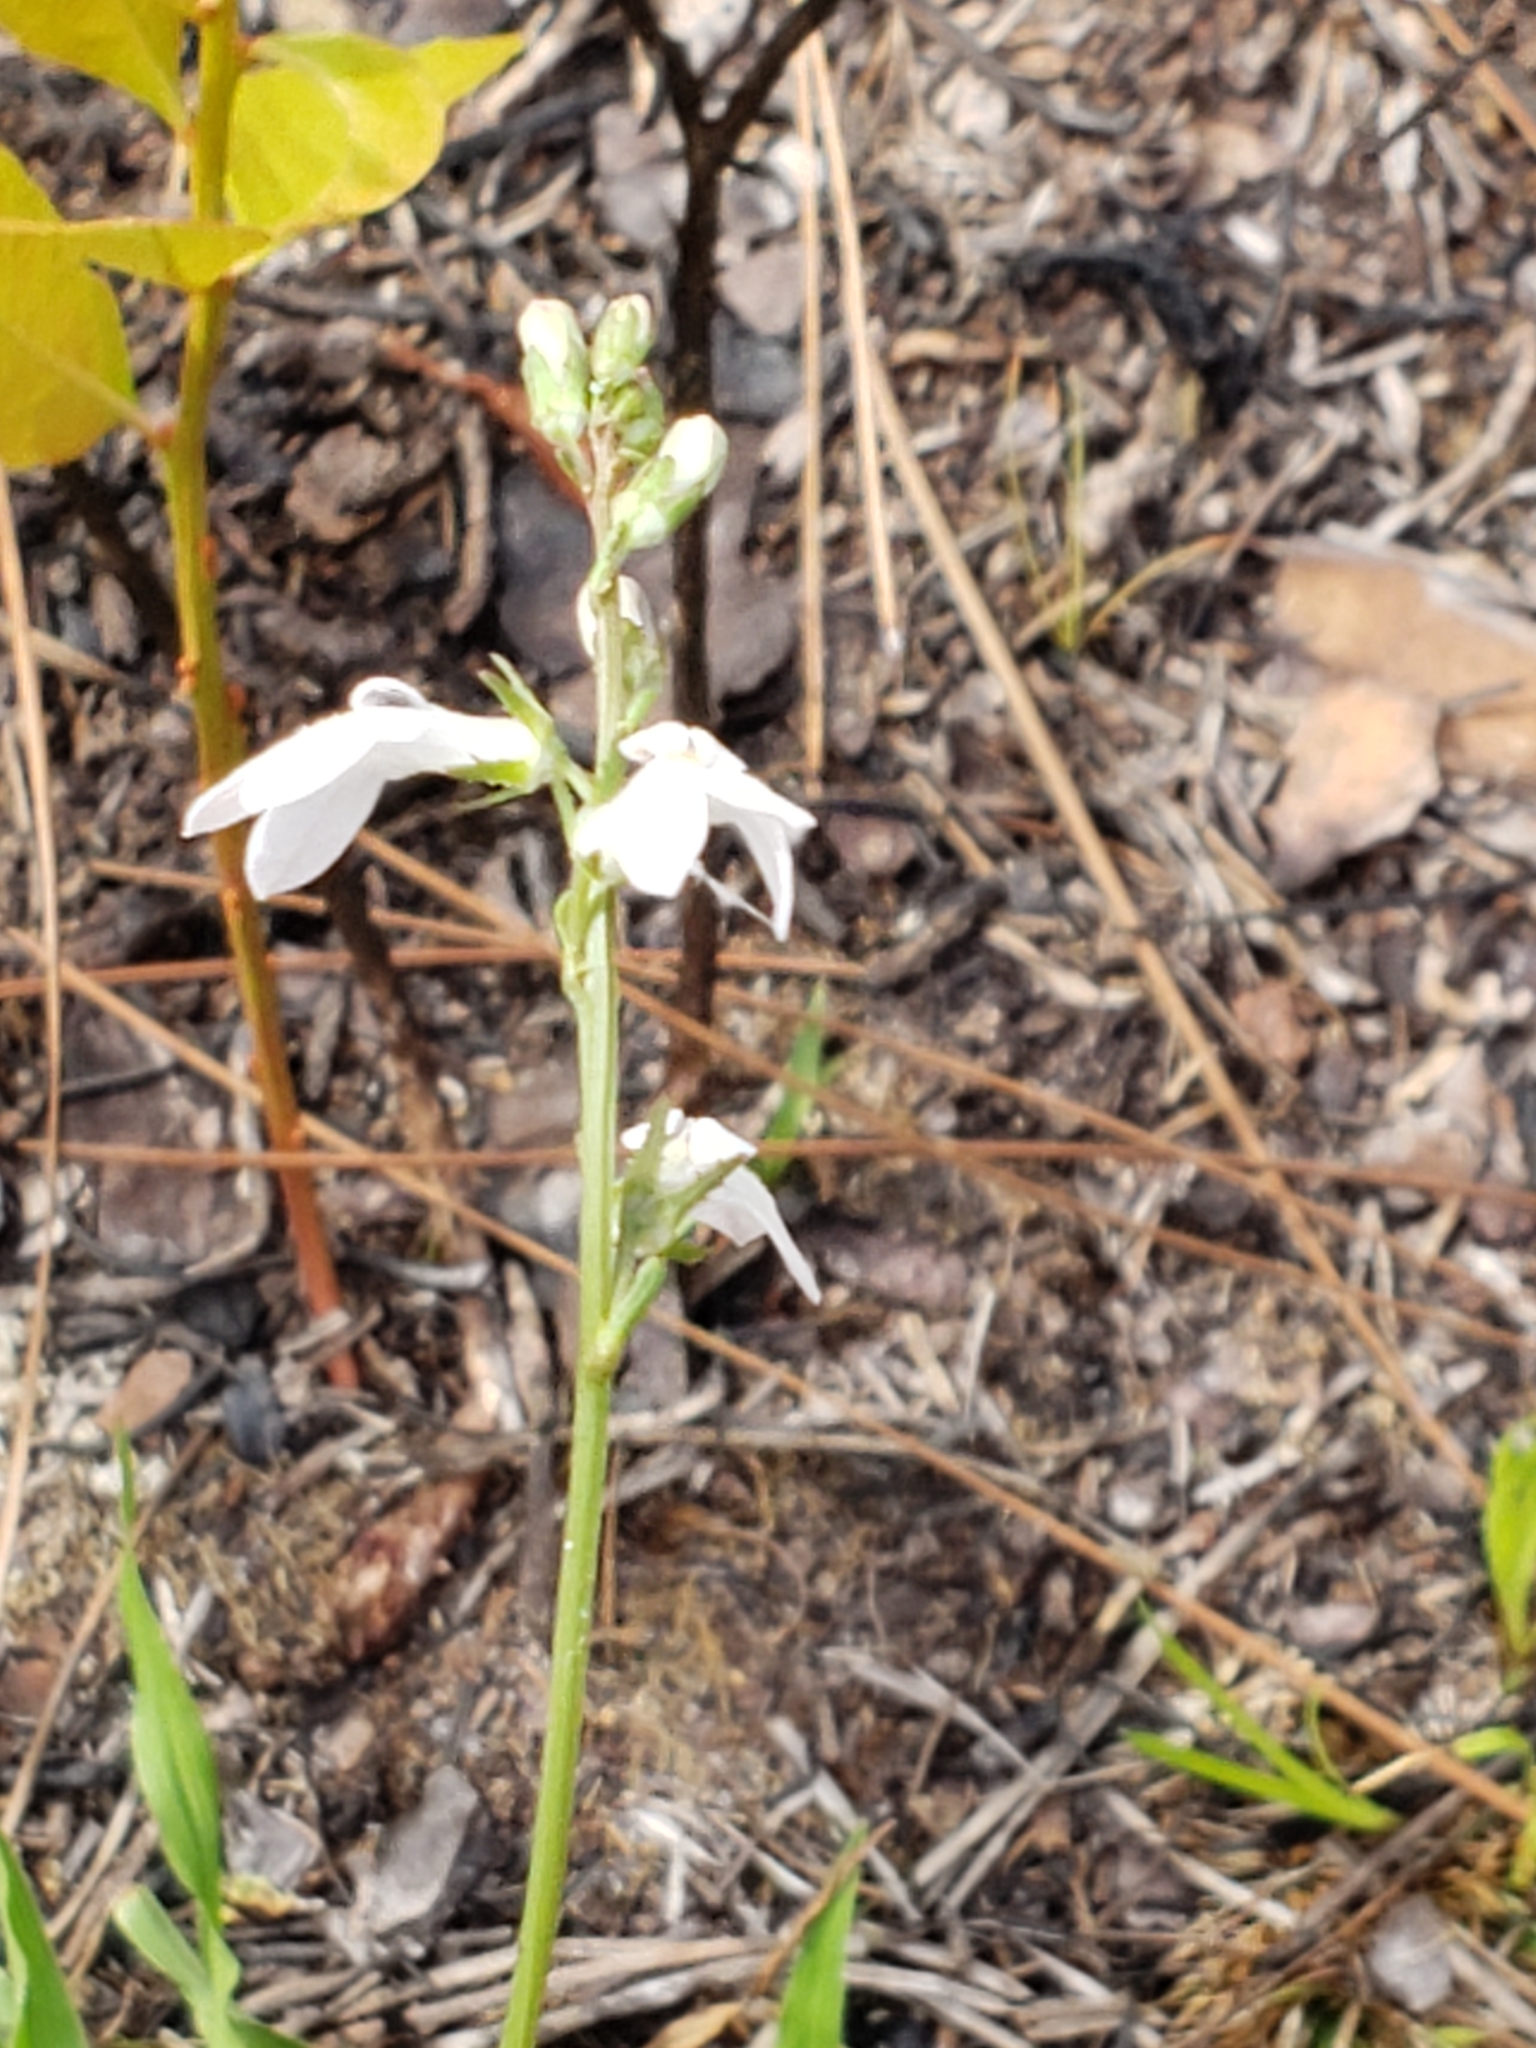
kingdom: Plantae
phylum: Tracheophyta
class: Magnoliopsida
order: Asterales
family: Campanulaceae
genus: Lobelia
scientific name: Lobelia paludosa
